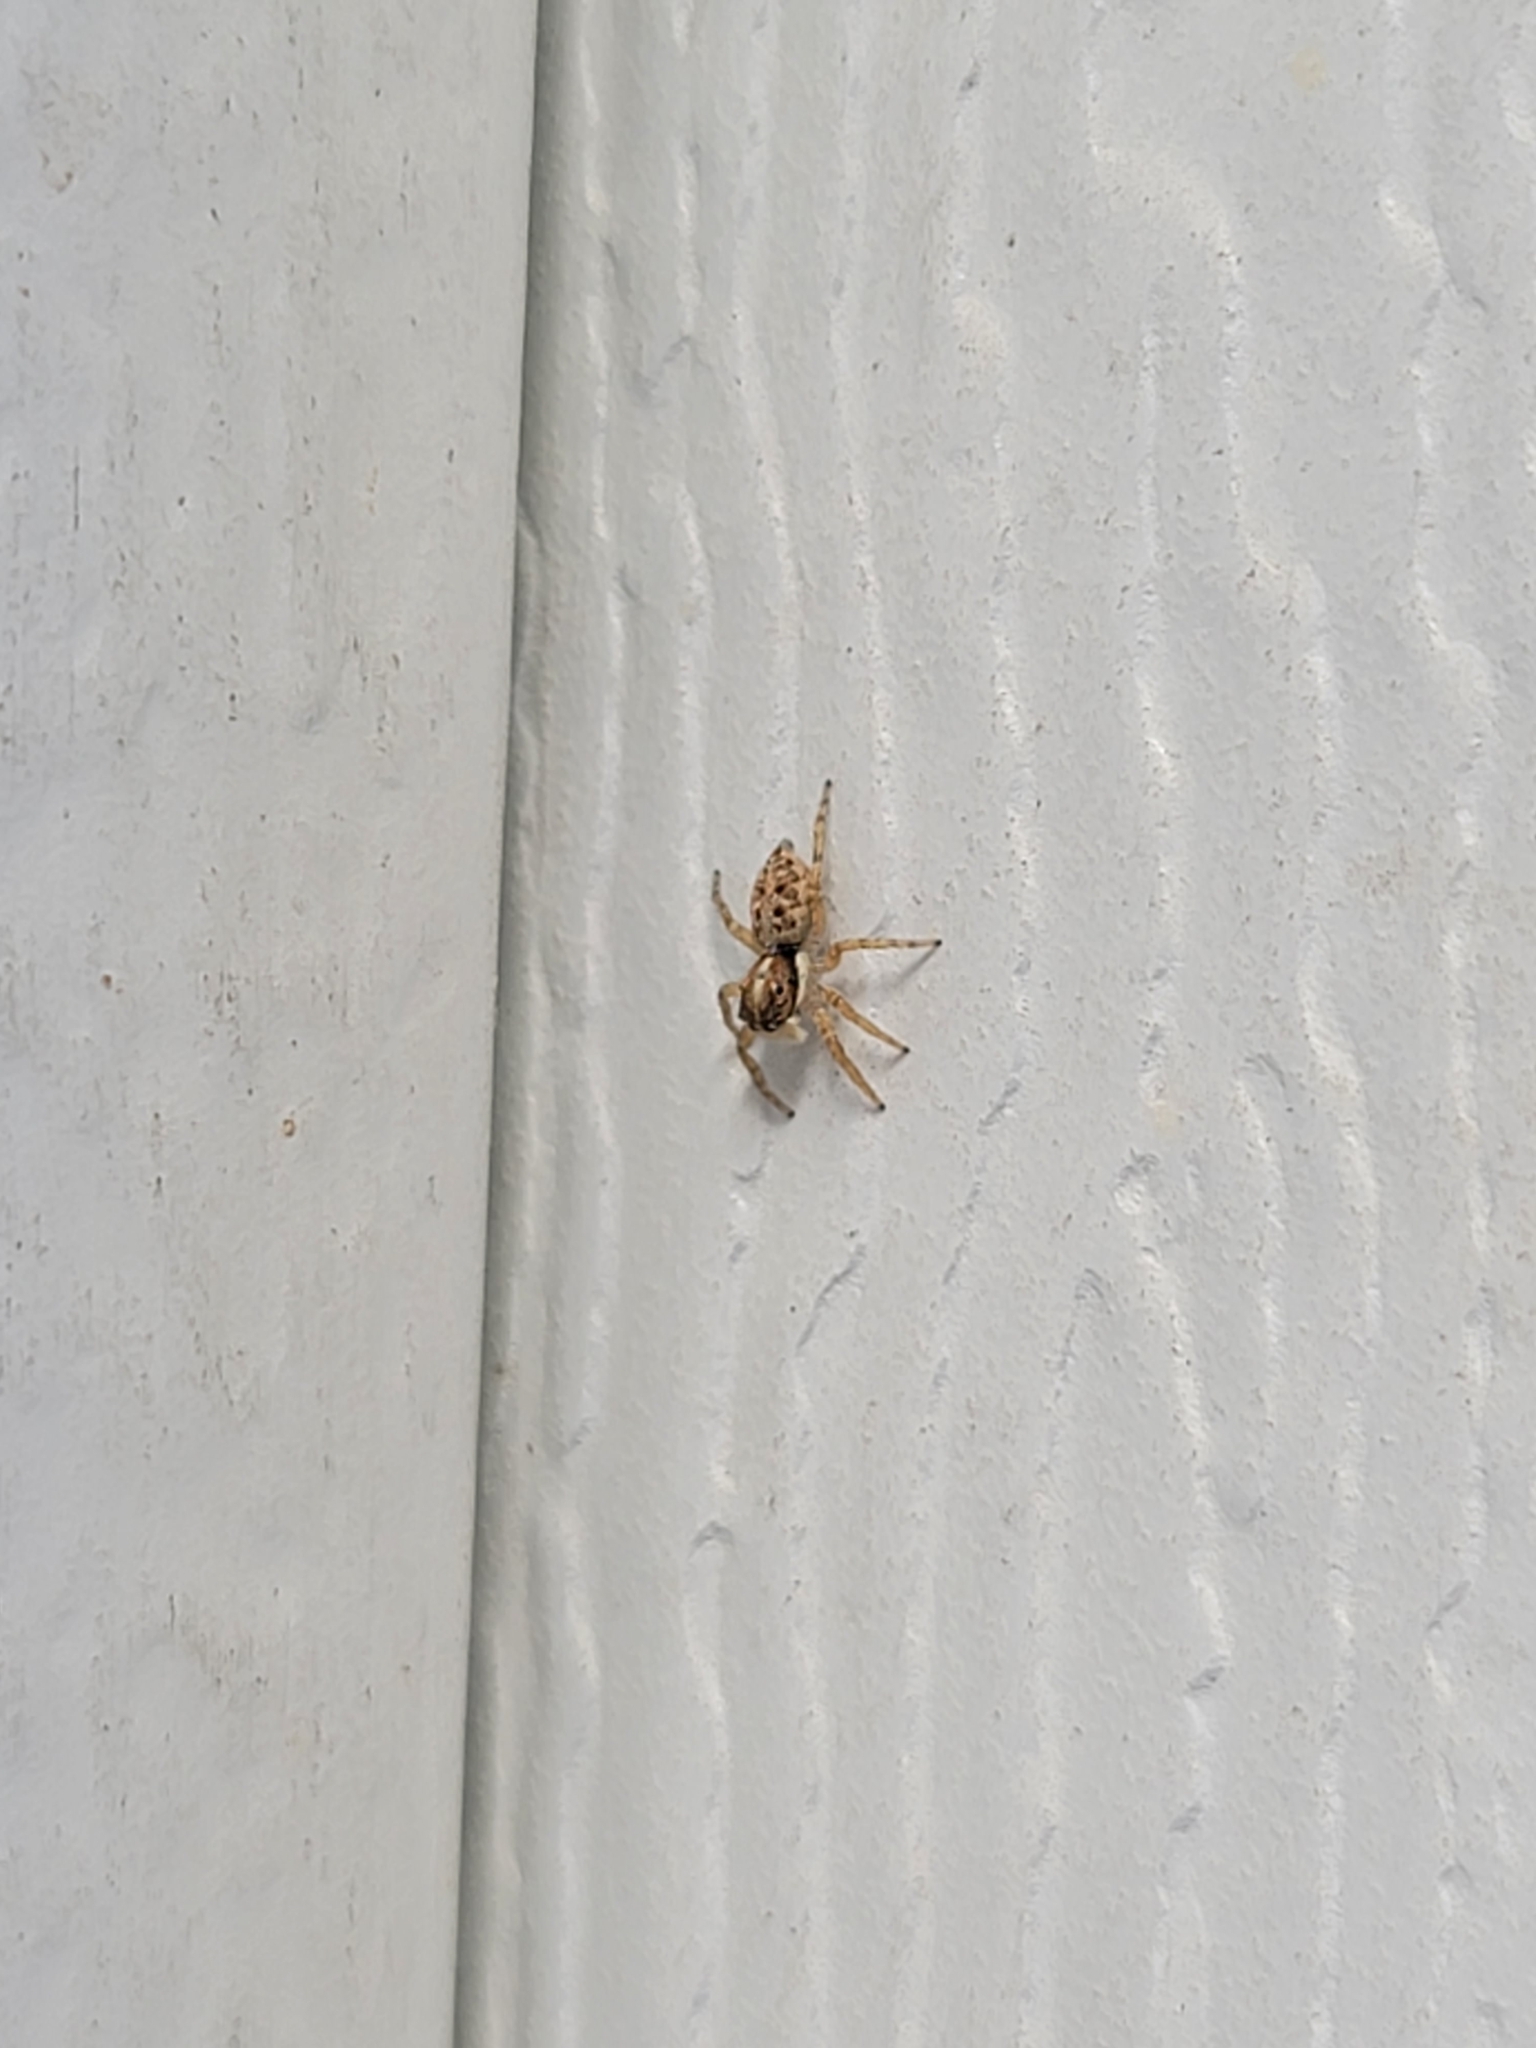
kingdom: Animalia
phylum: Arthropoda
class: Arachnida
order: Araneae
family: Salticidae
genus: Menemerus
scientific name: Menemerus semilimbatus
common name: Jumping spider
